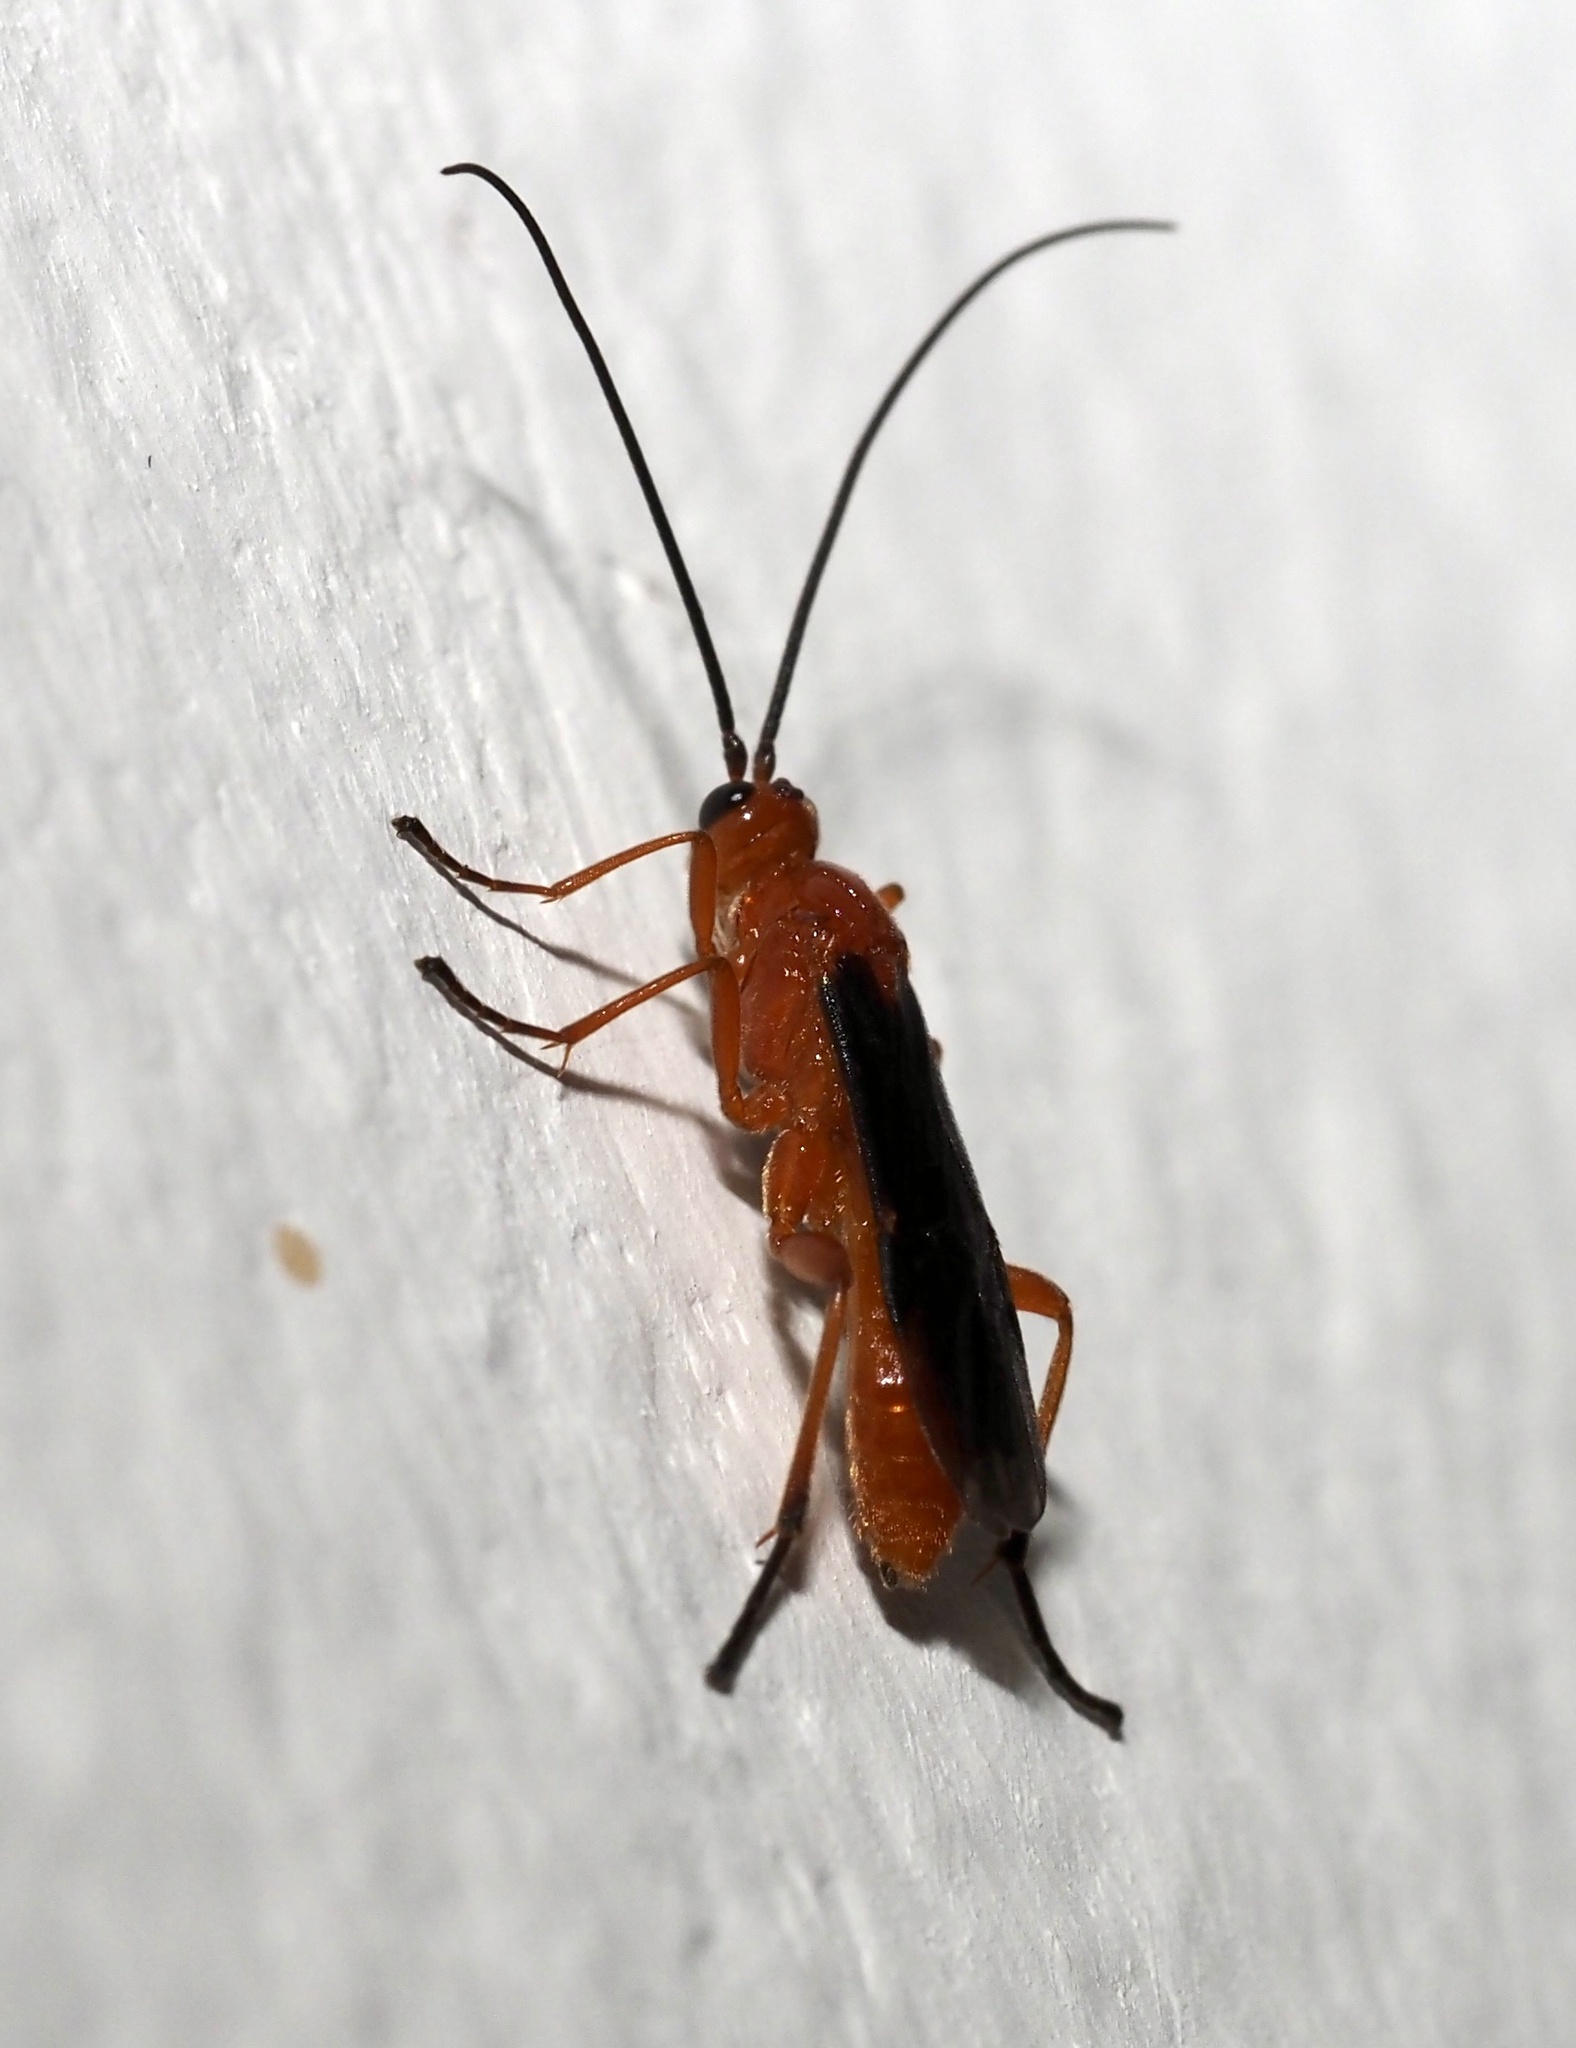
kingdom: Animalia
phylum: Arthropoda
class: Insecta
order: Hymenoptera
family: Braconidae
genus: Aleiodes
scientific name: Aleiodes politiceps
